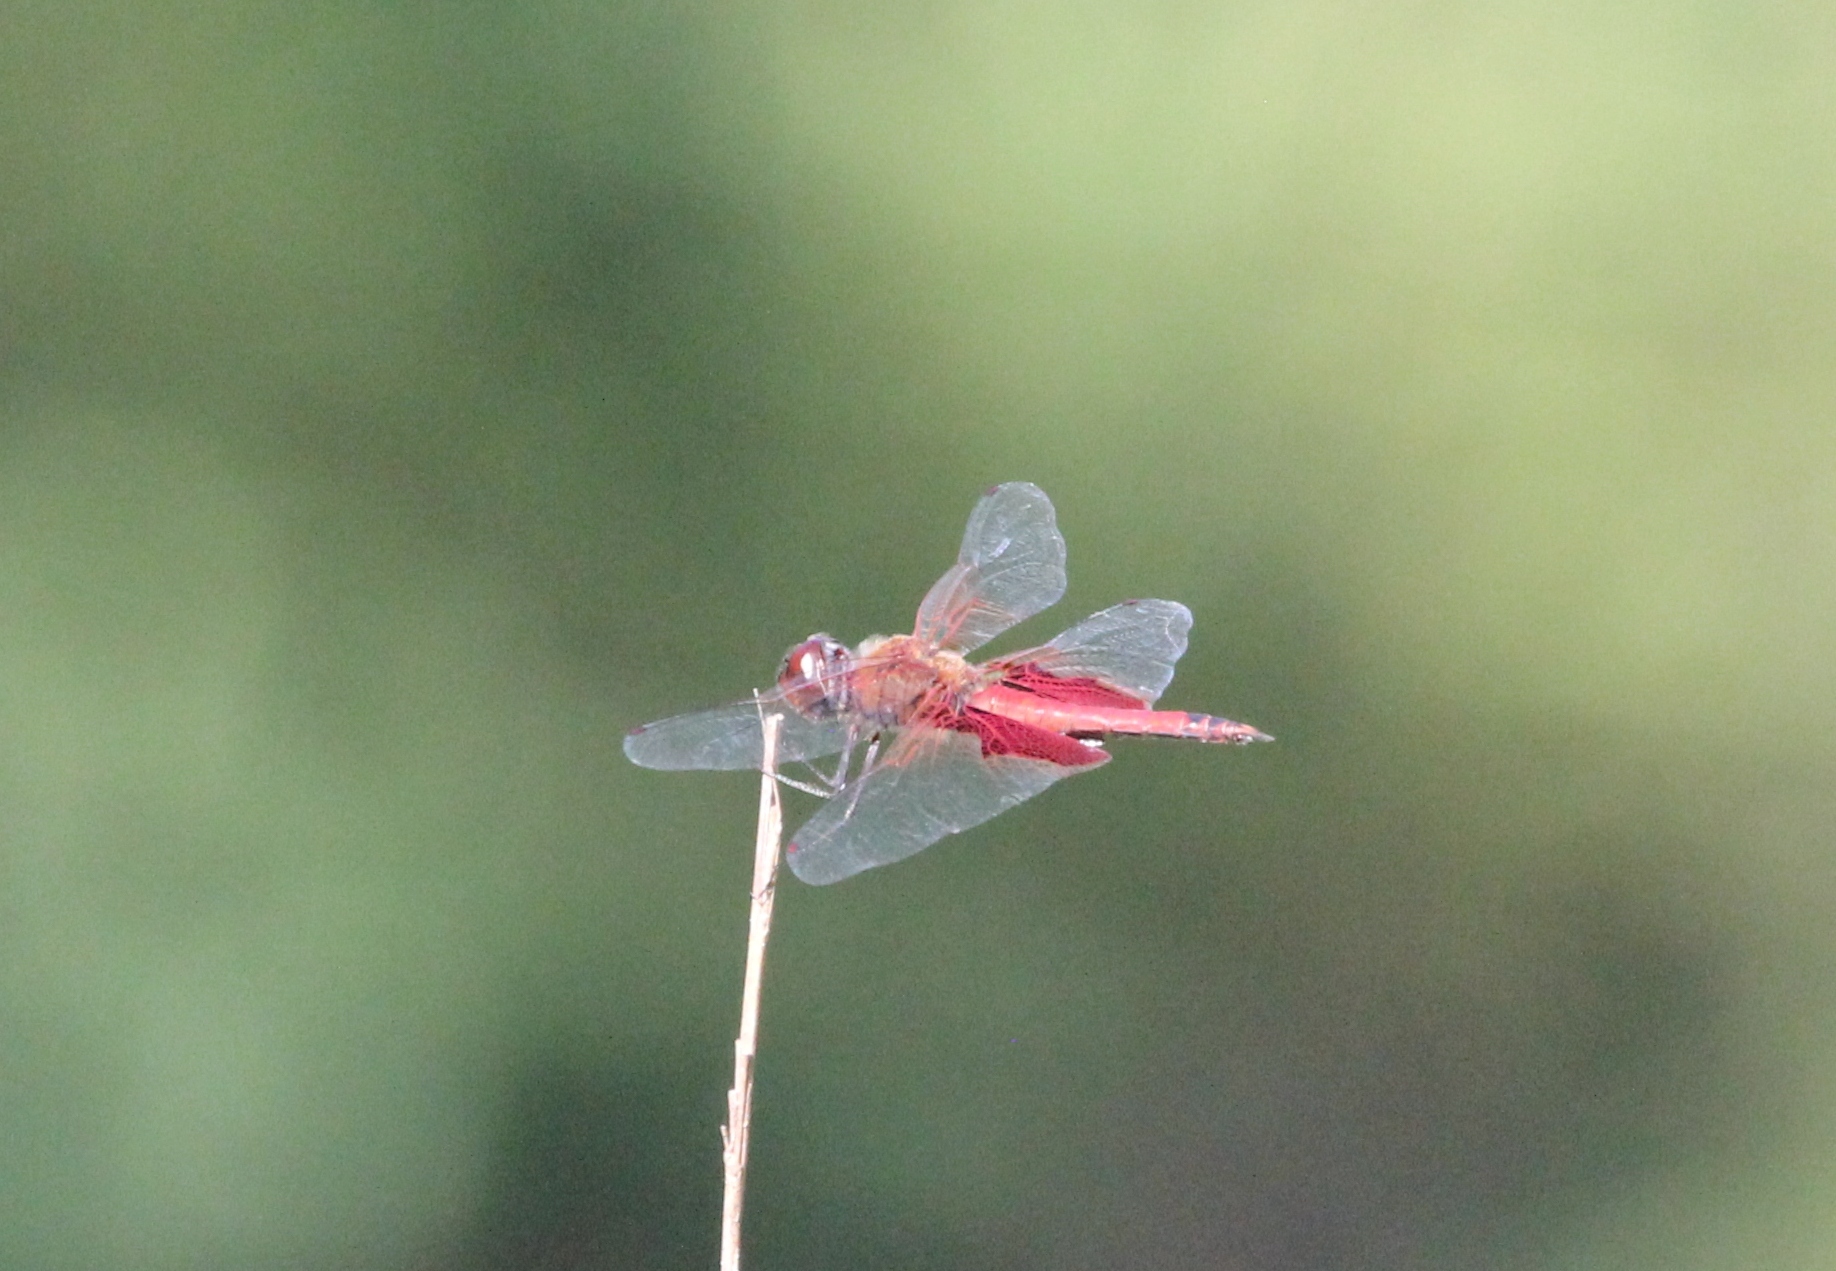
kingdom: Animalia
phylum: Arthropoda
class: Insecta
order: Odonata
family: Libellulidae
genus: Tramea
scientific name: Tramea onusta
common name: Red saddlebags
